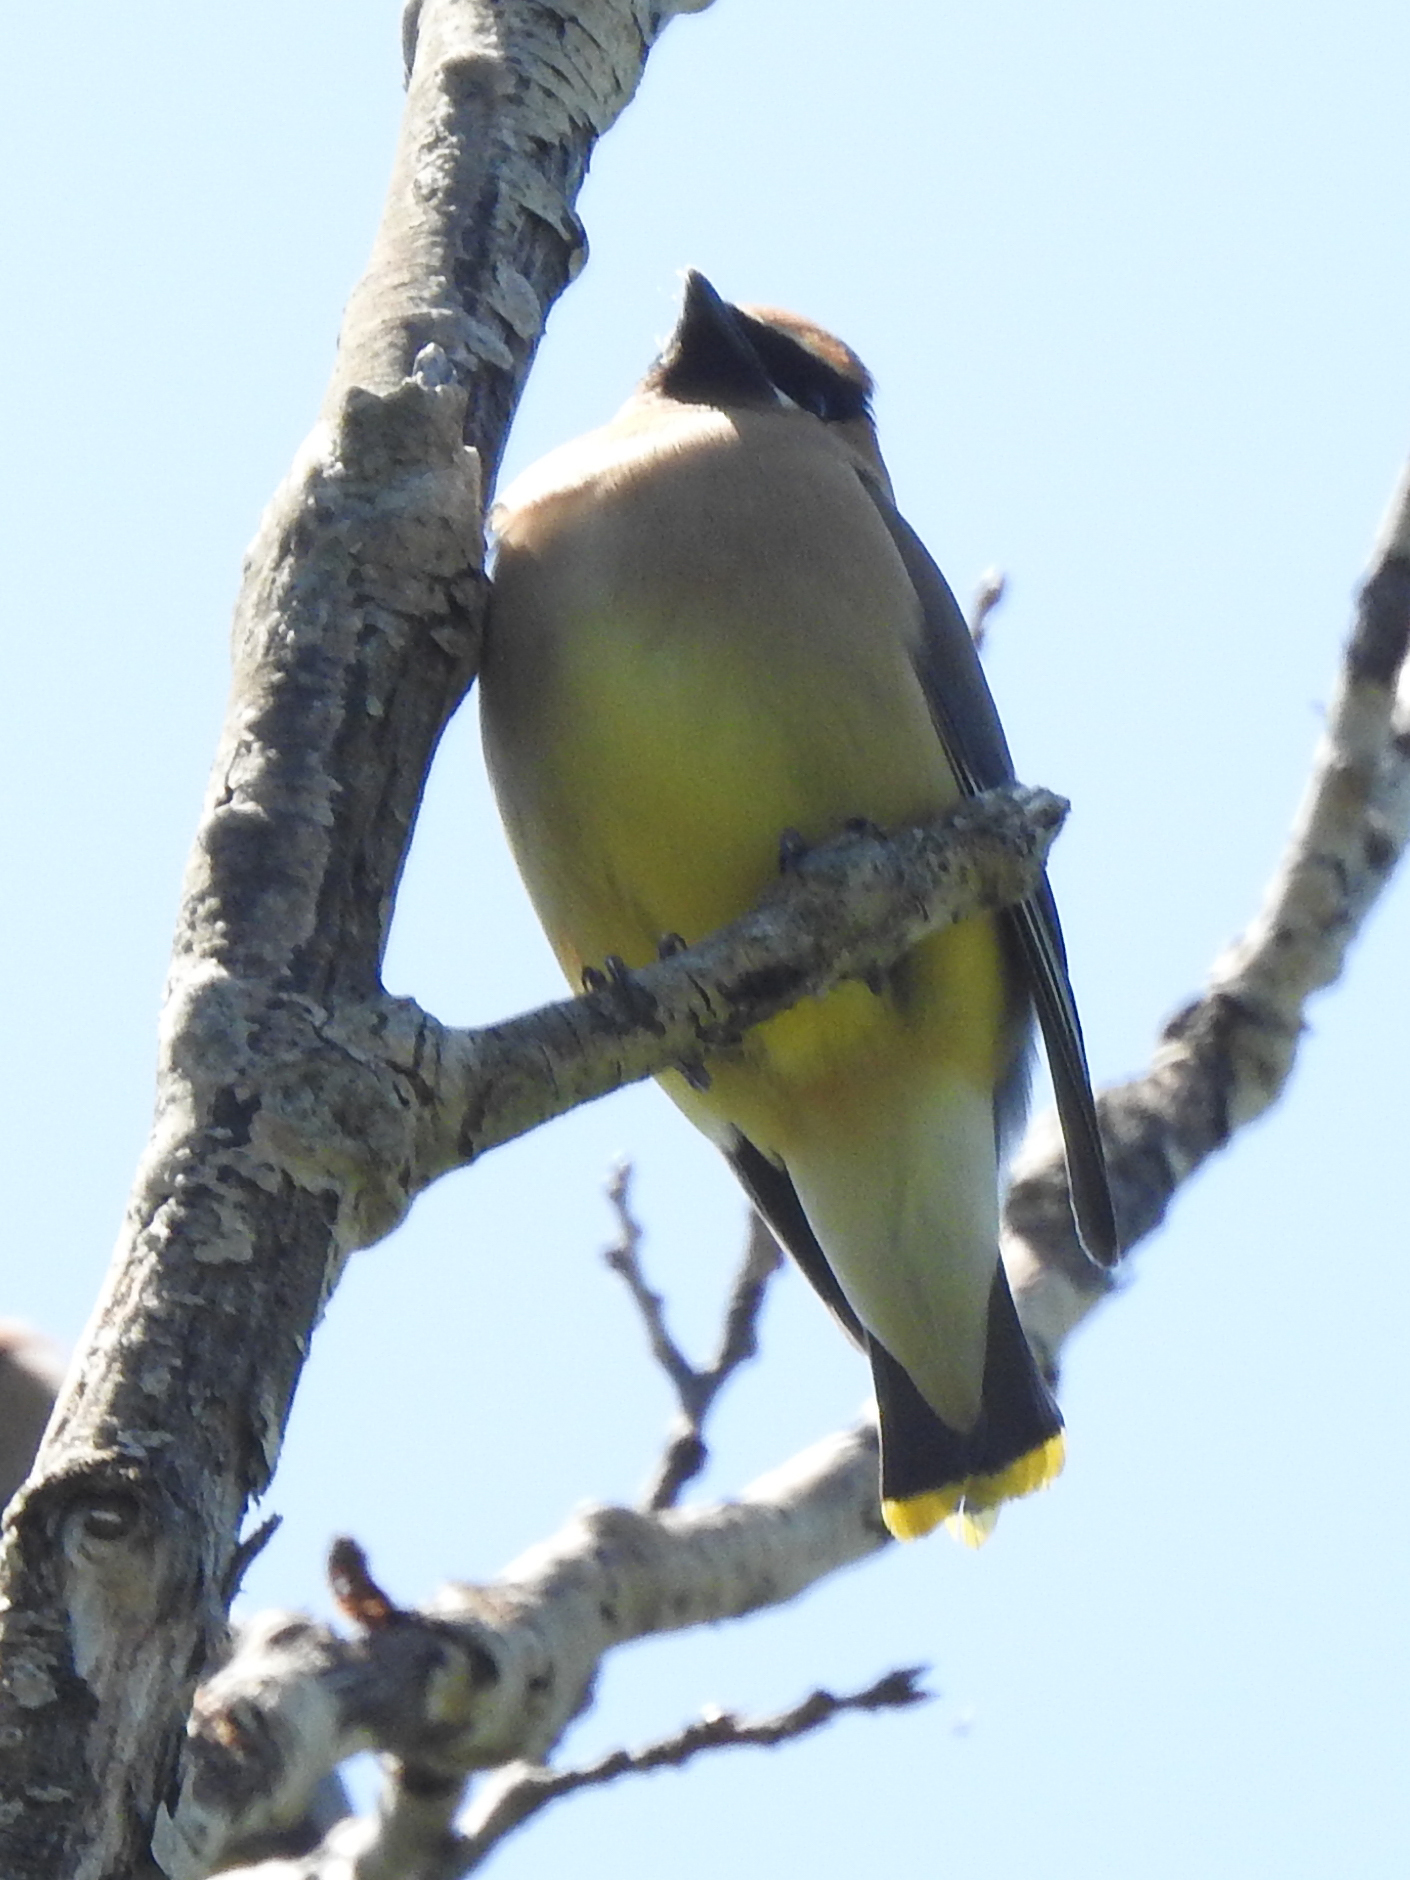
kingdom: Animalia
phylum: Chordata
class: Aves
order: Passeriformes
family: Bombycillidae
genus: Bombycilla
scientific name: Bombycilla cedrorum
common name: Cedar waxwing
